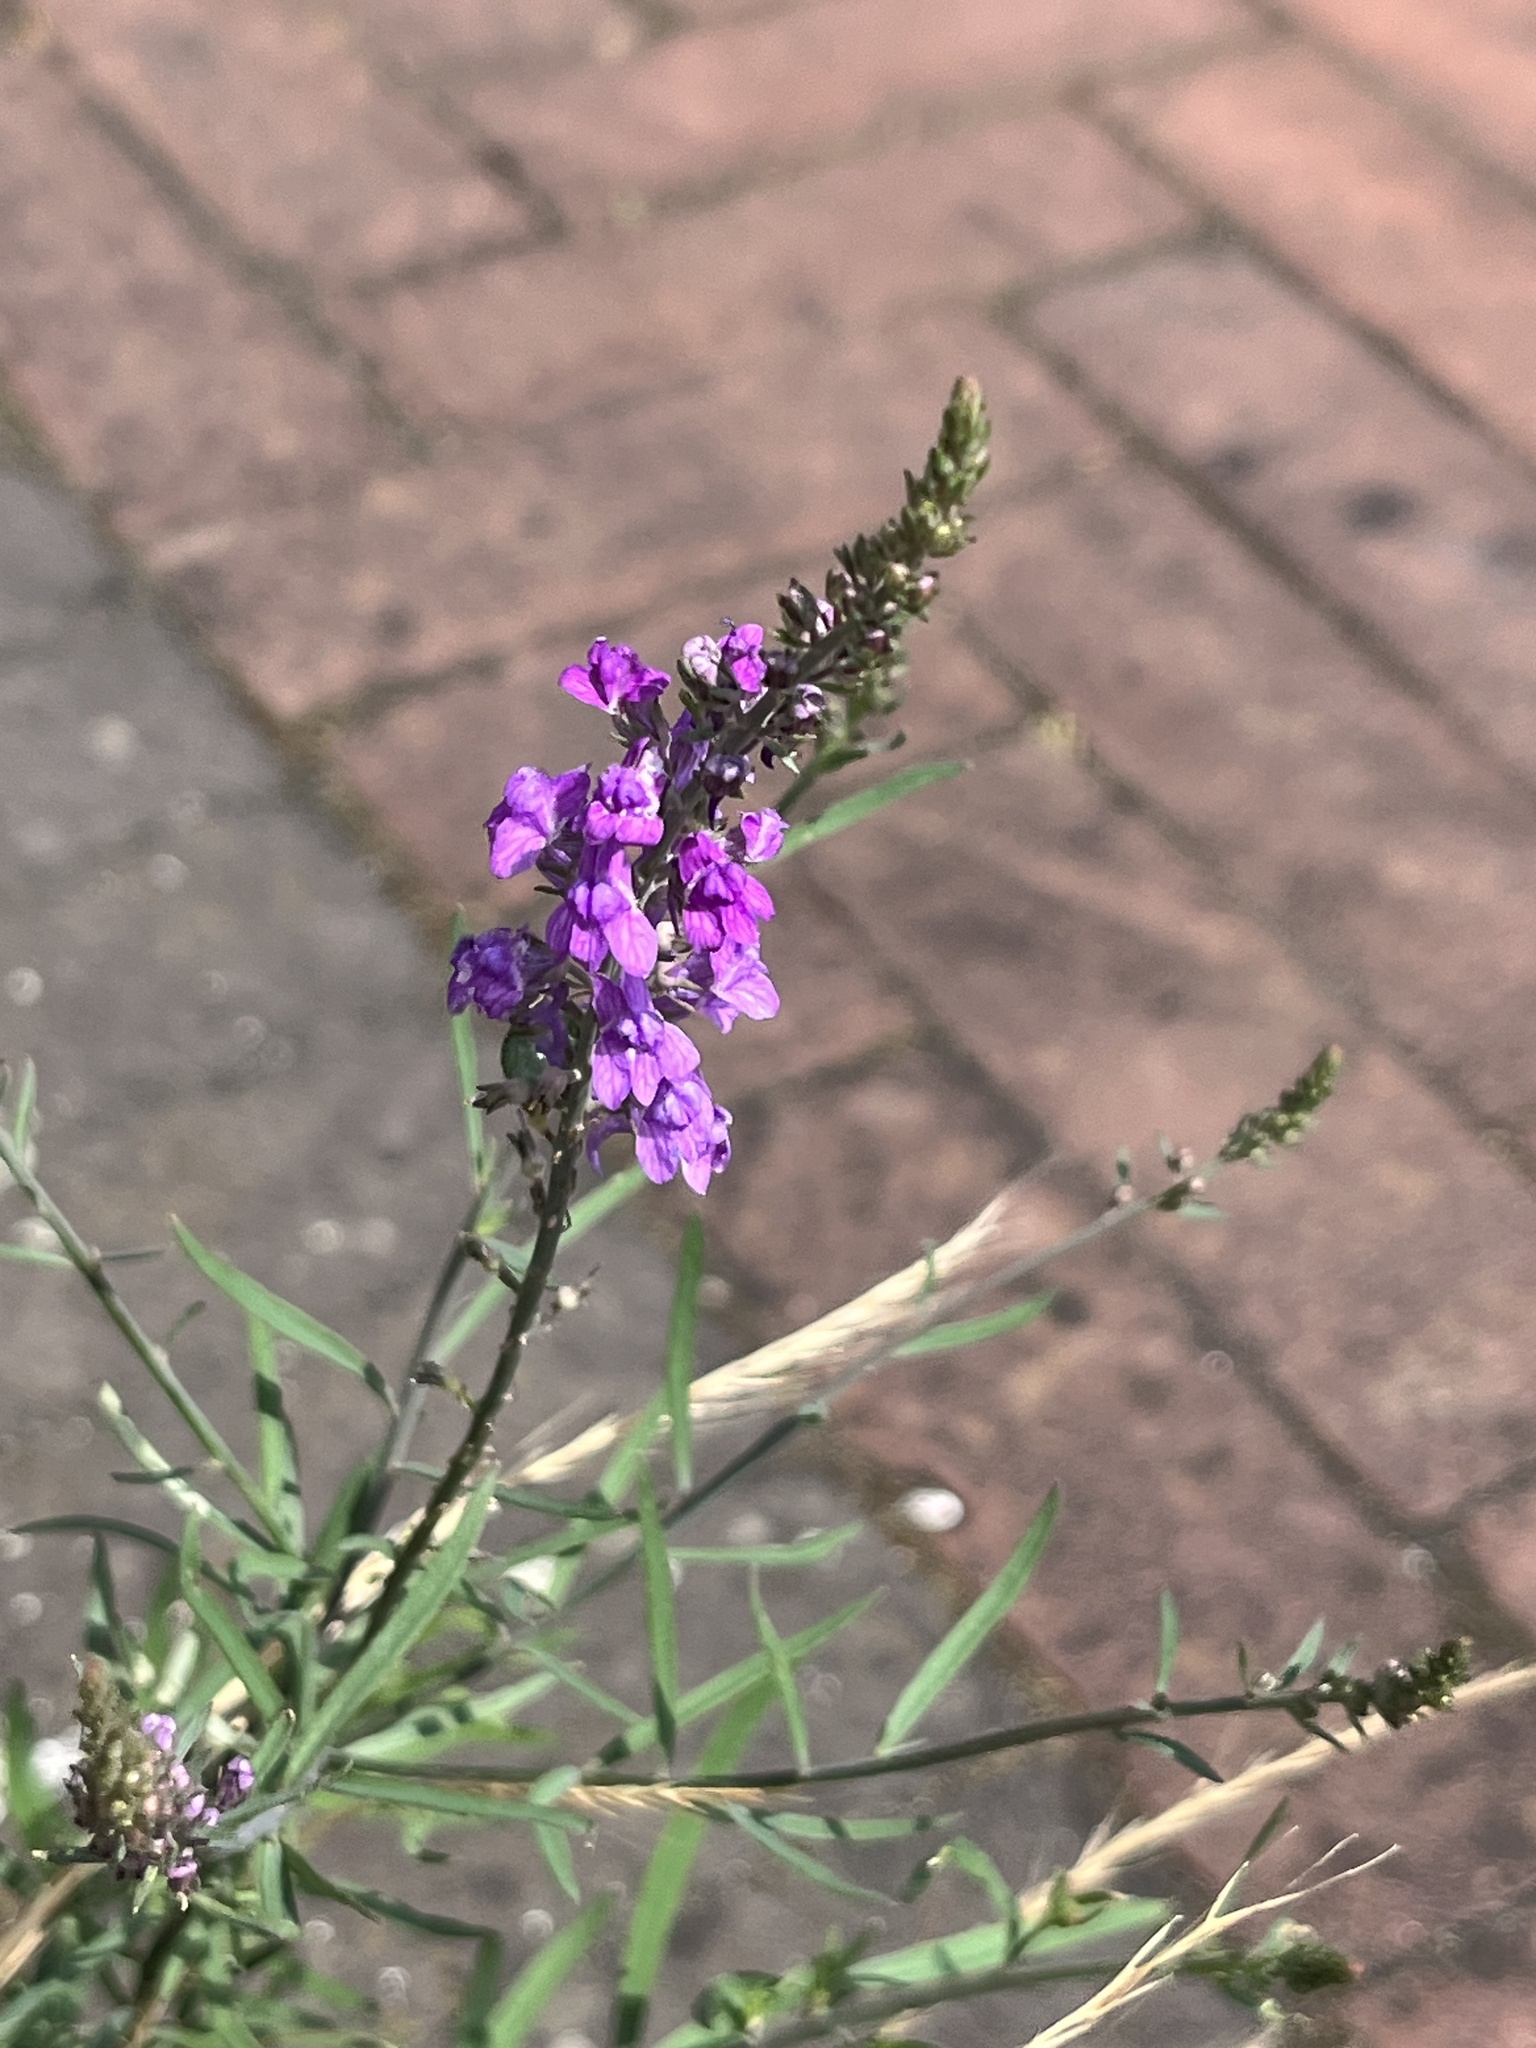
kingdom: Plantae
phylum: Tracheophyta
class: Magnoliopsida
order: Lamiales
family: Plantaginaceae
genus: Linaria
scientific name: Linaria purpurea
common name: Purple toadflax
